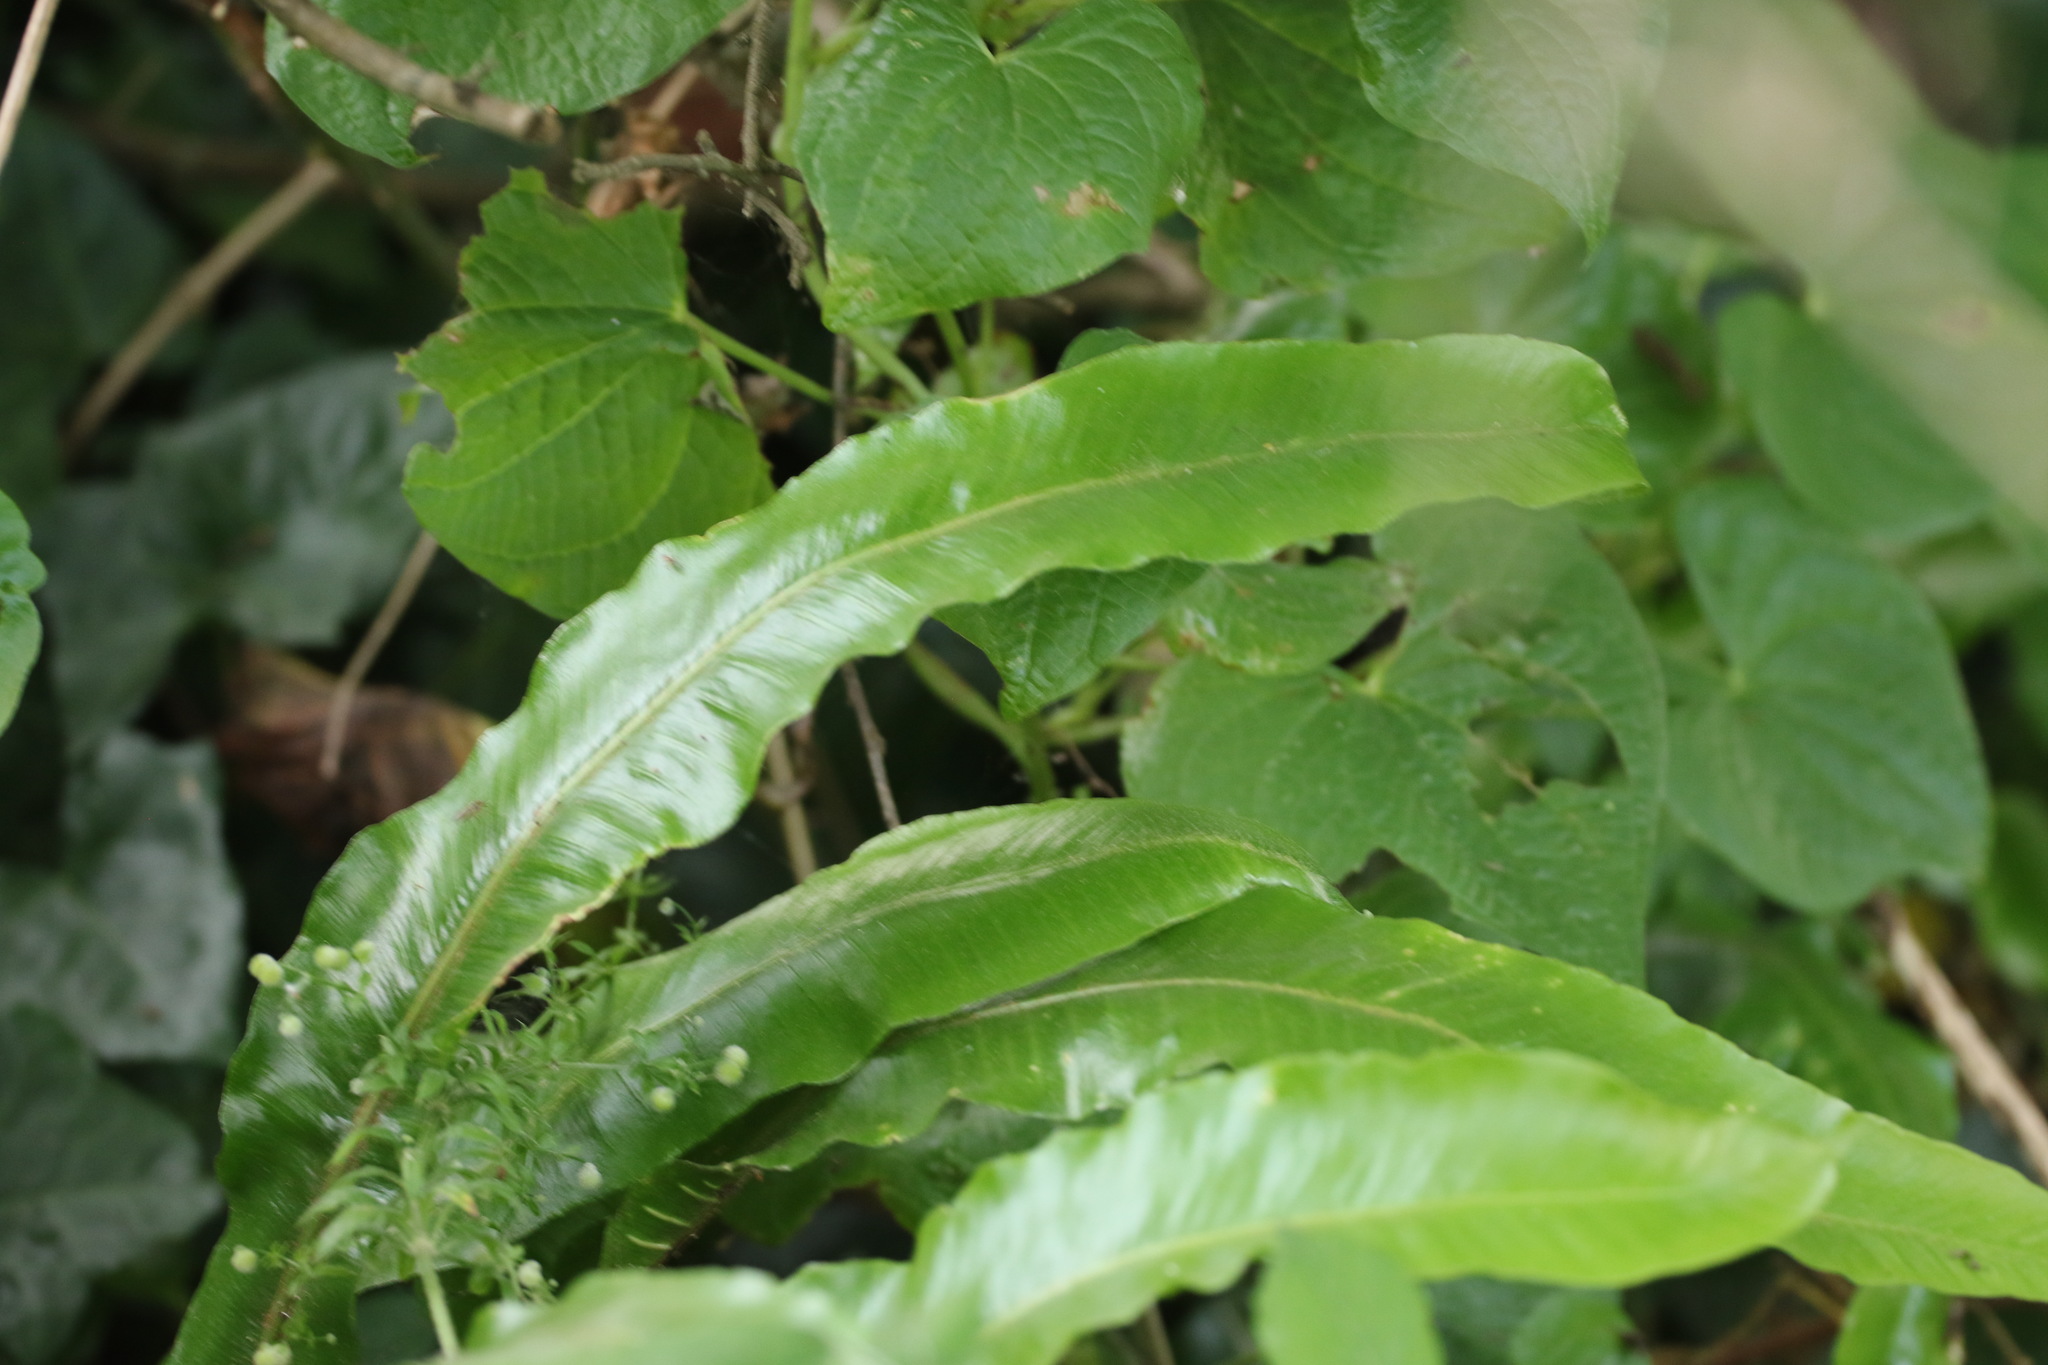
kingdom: Plantae
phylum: Tracheophyta
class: Polypodiopsida
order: Polypodiales
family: Aspleniaceae
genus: Asplenium
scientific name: Asplenium scolopendrium
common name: Hart's-tongue fern
